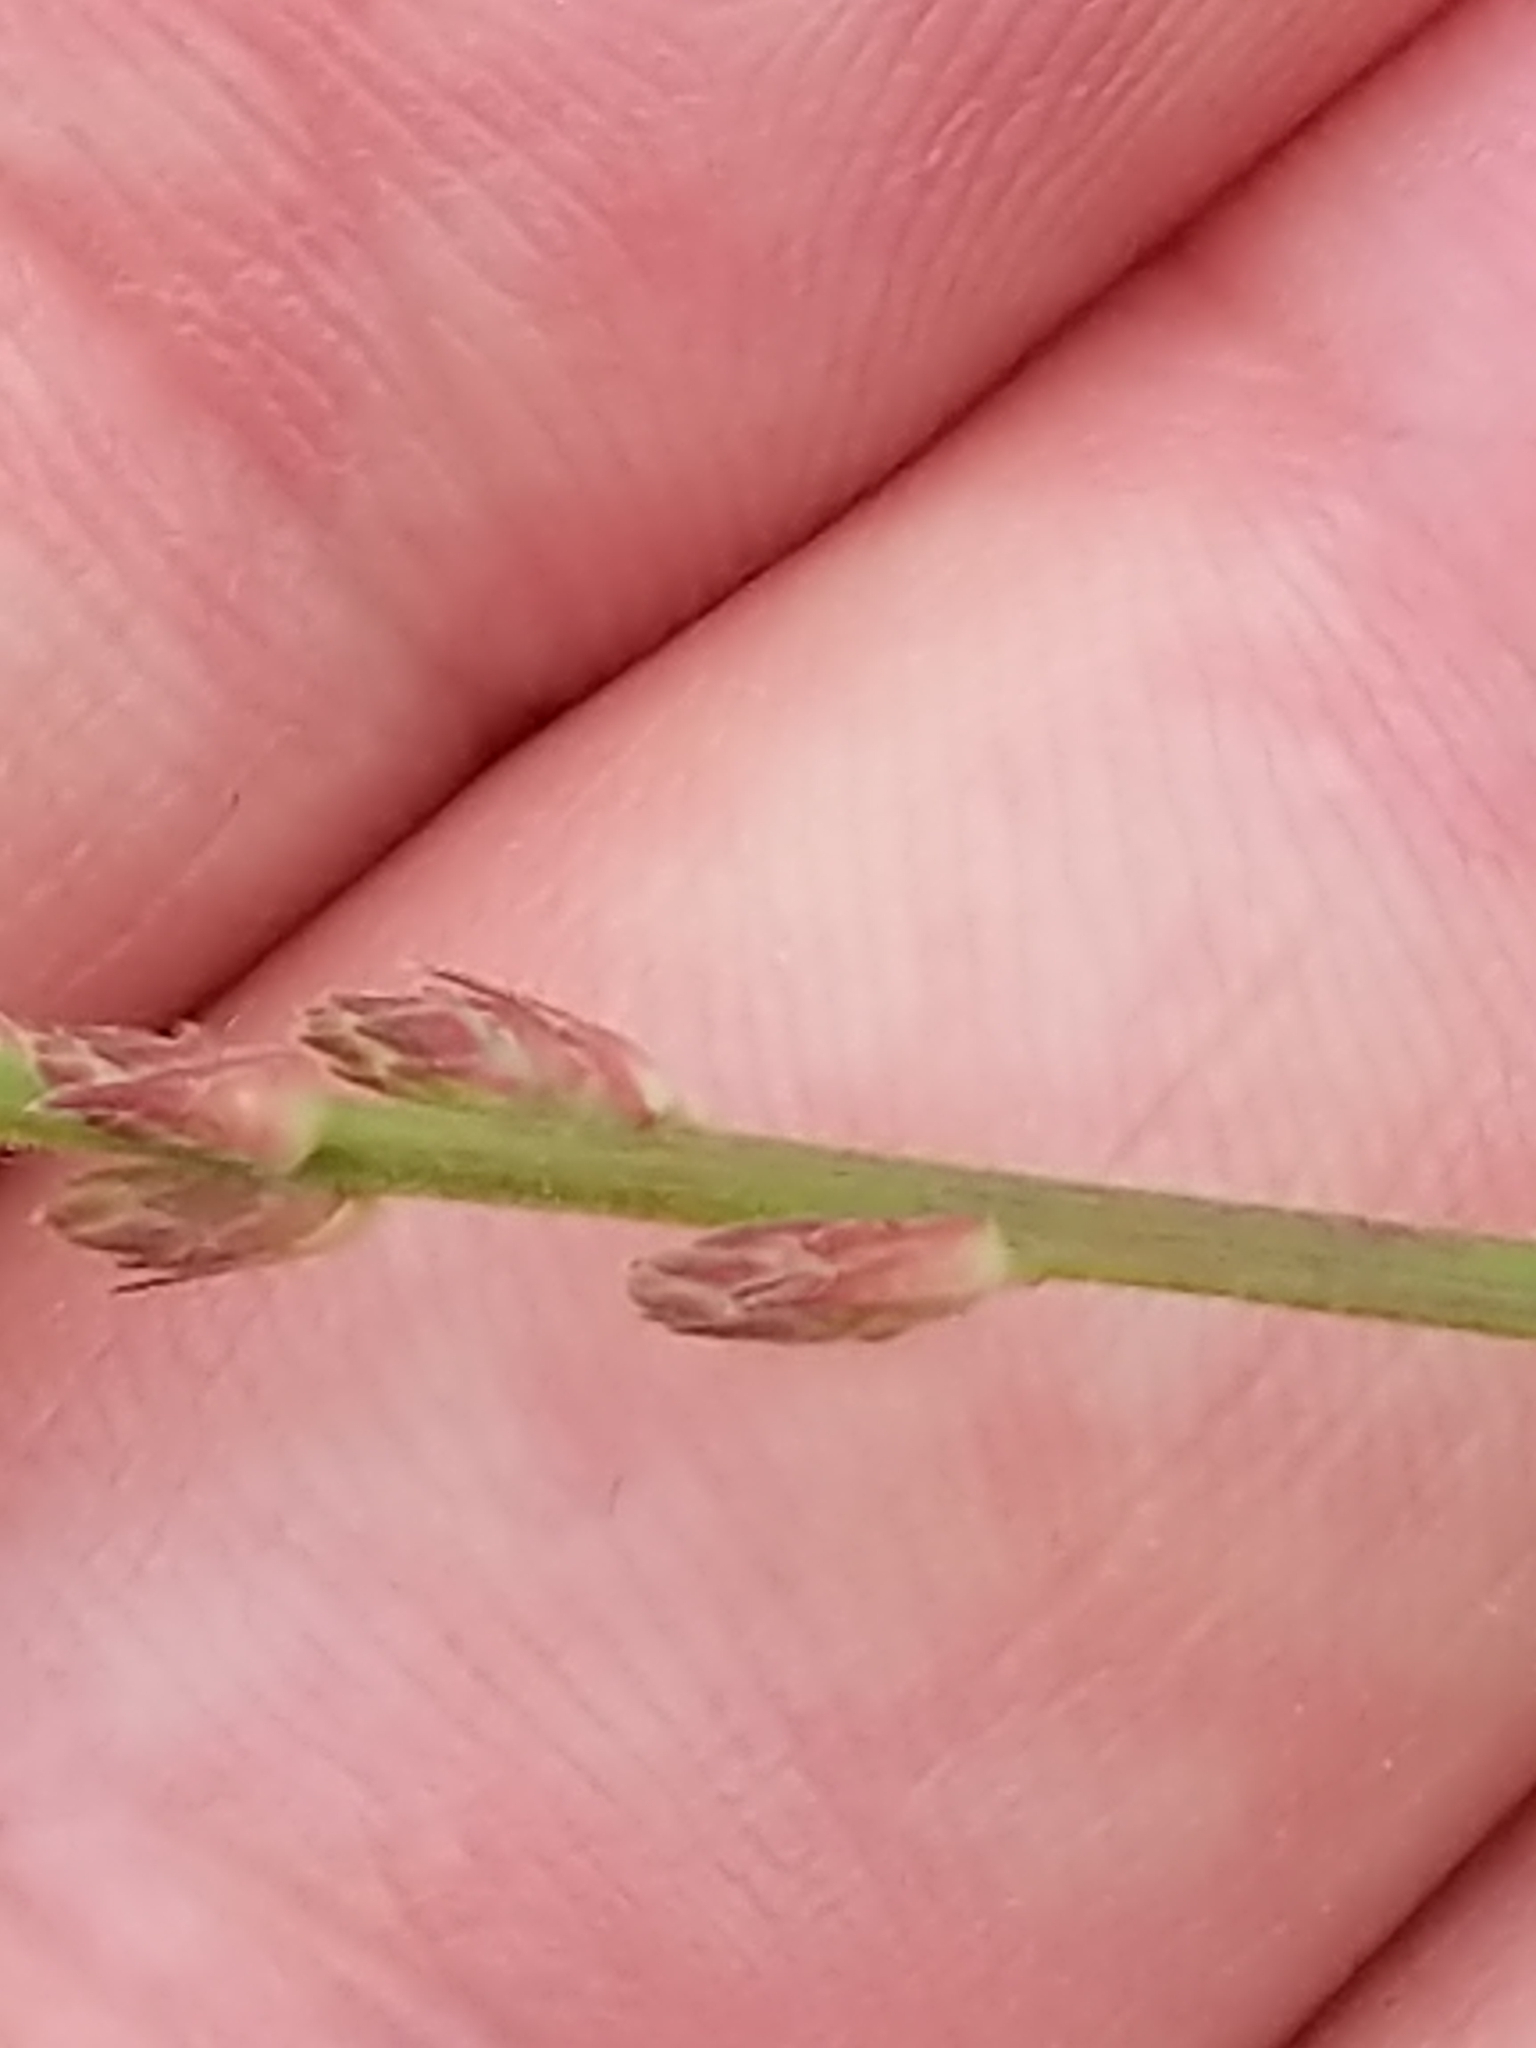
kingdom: Plantae
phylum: Tracheophyta
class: Magnoliopsida
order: Fabales
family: Fabaceae
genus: Desmodium
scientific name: Desmodium ciliare
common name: Hairy small-leaf ticktrefoil
